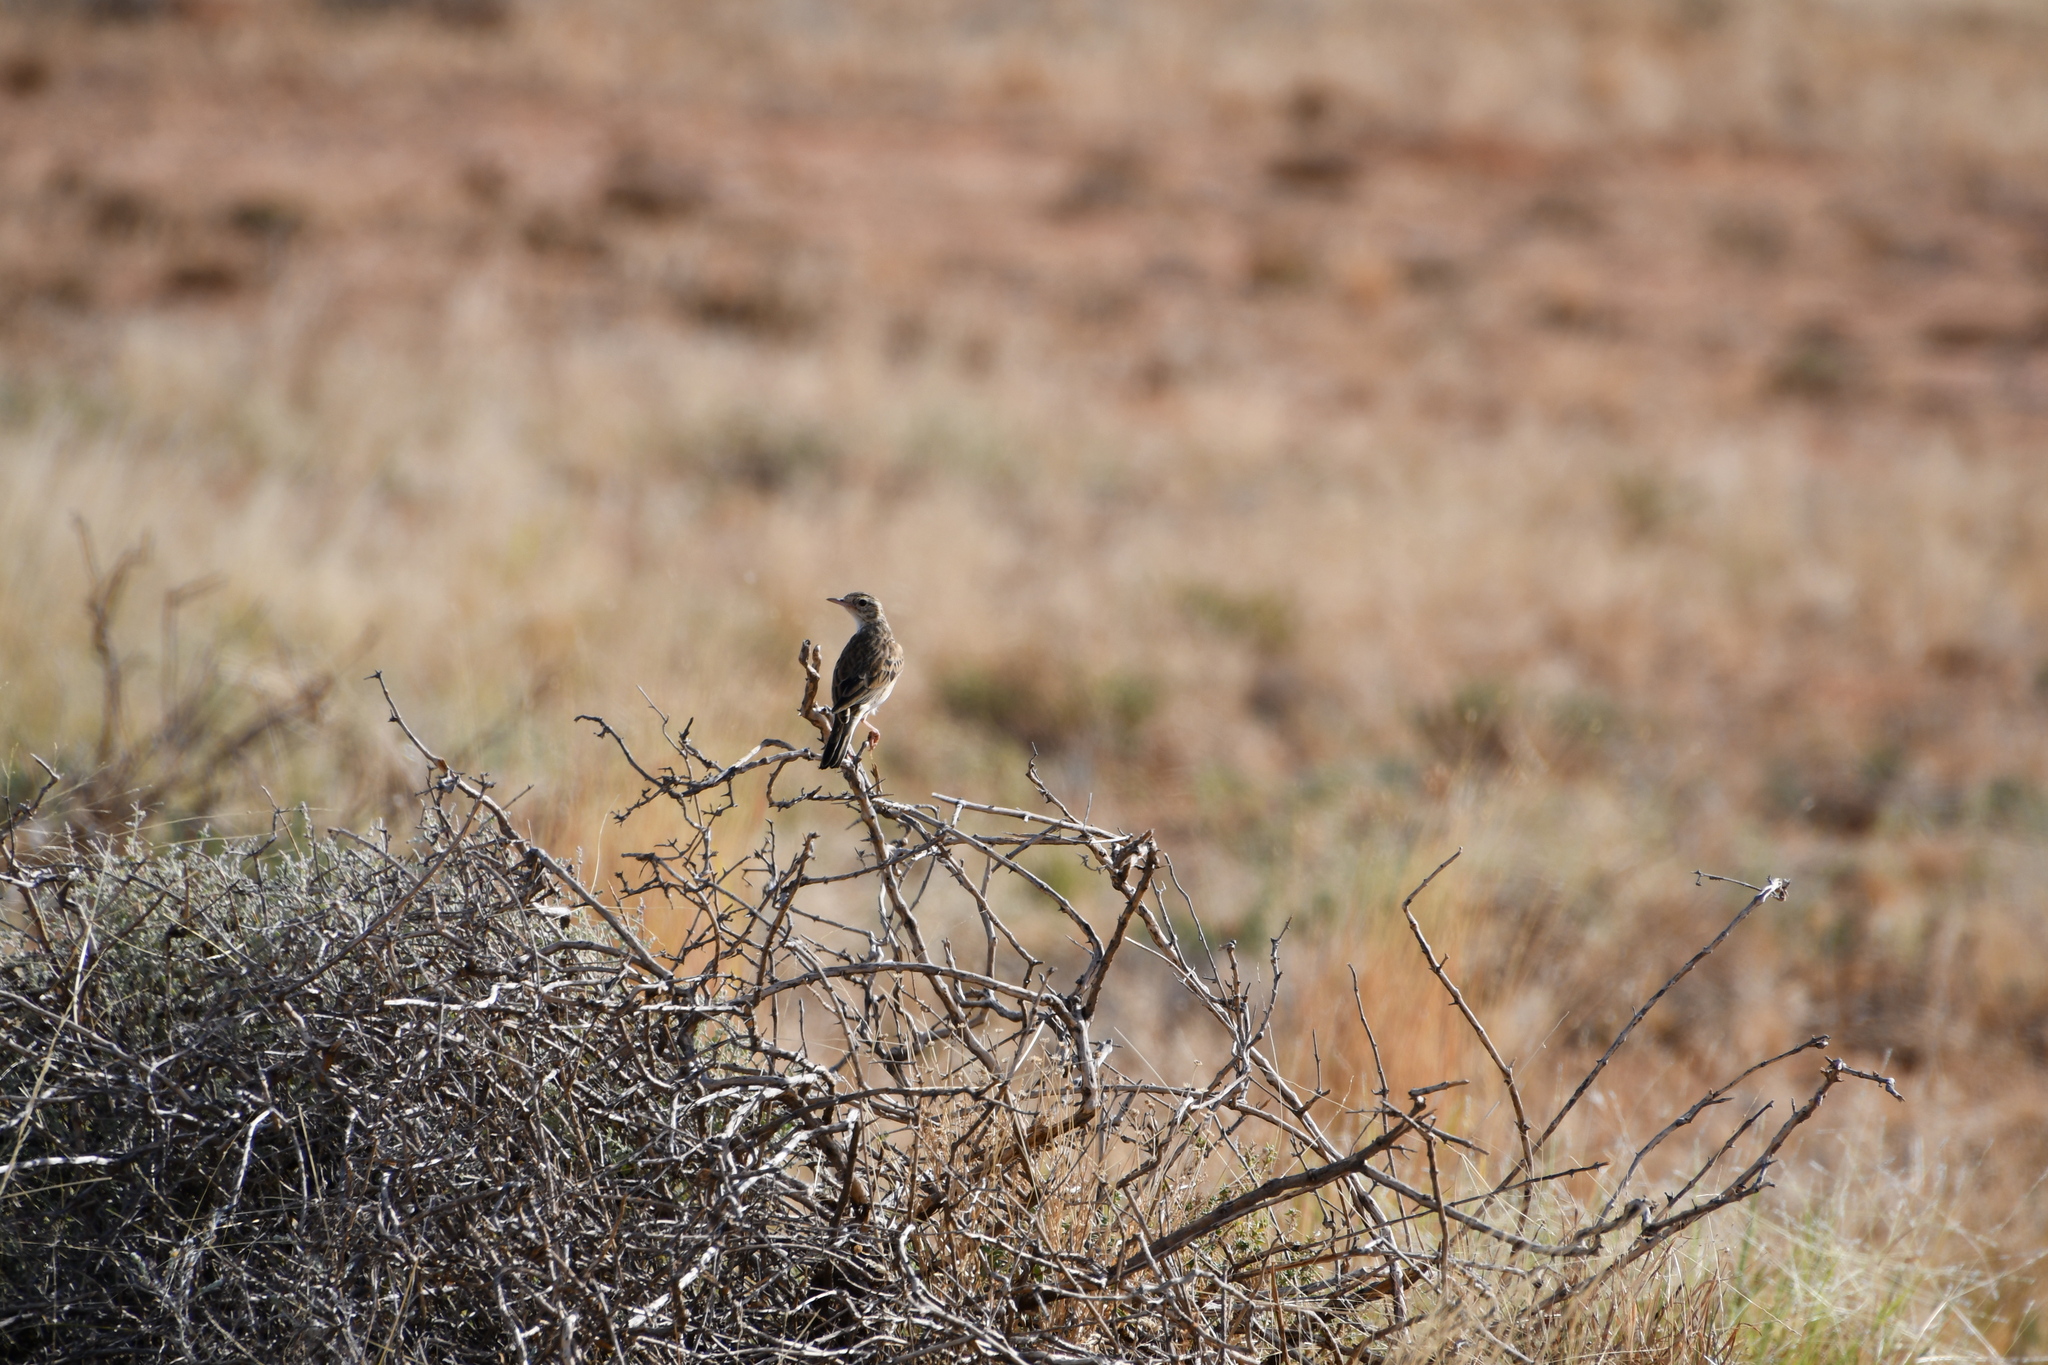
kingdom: Animalia
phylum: Chordata
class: Aves
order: Passeriformes
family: Motacillidae
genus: Anthus
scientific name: Anthus australis
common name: Australian pipit
